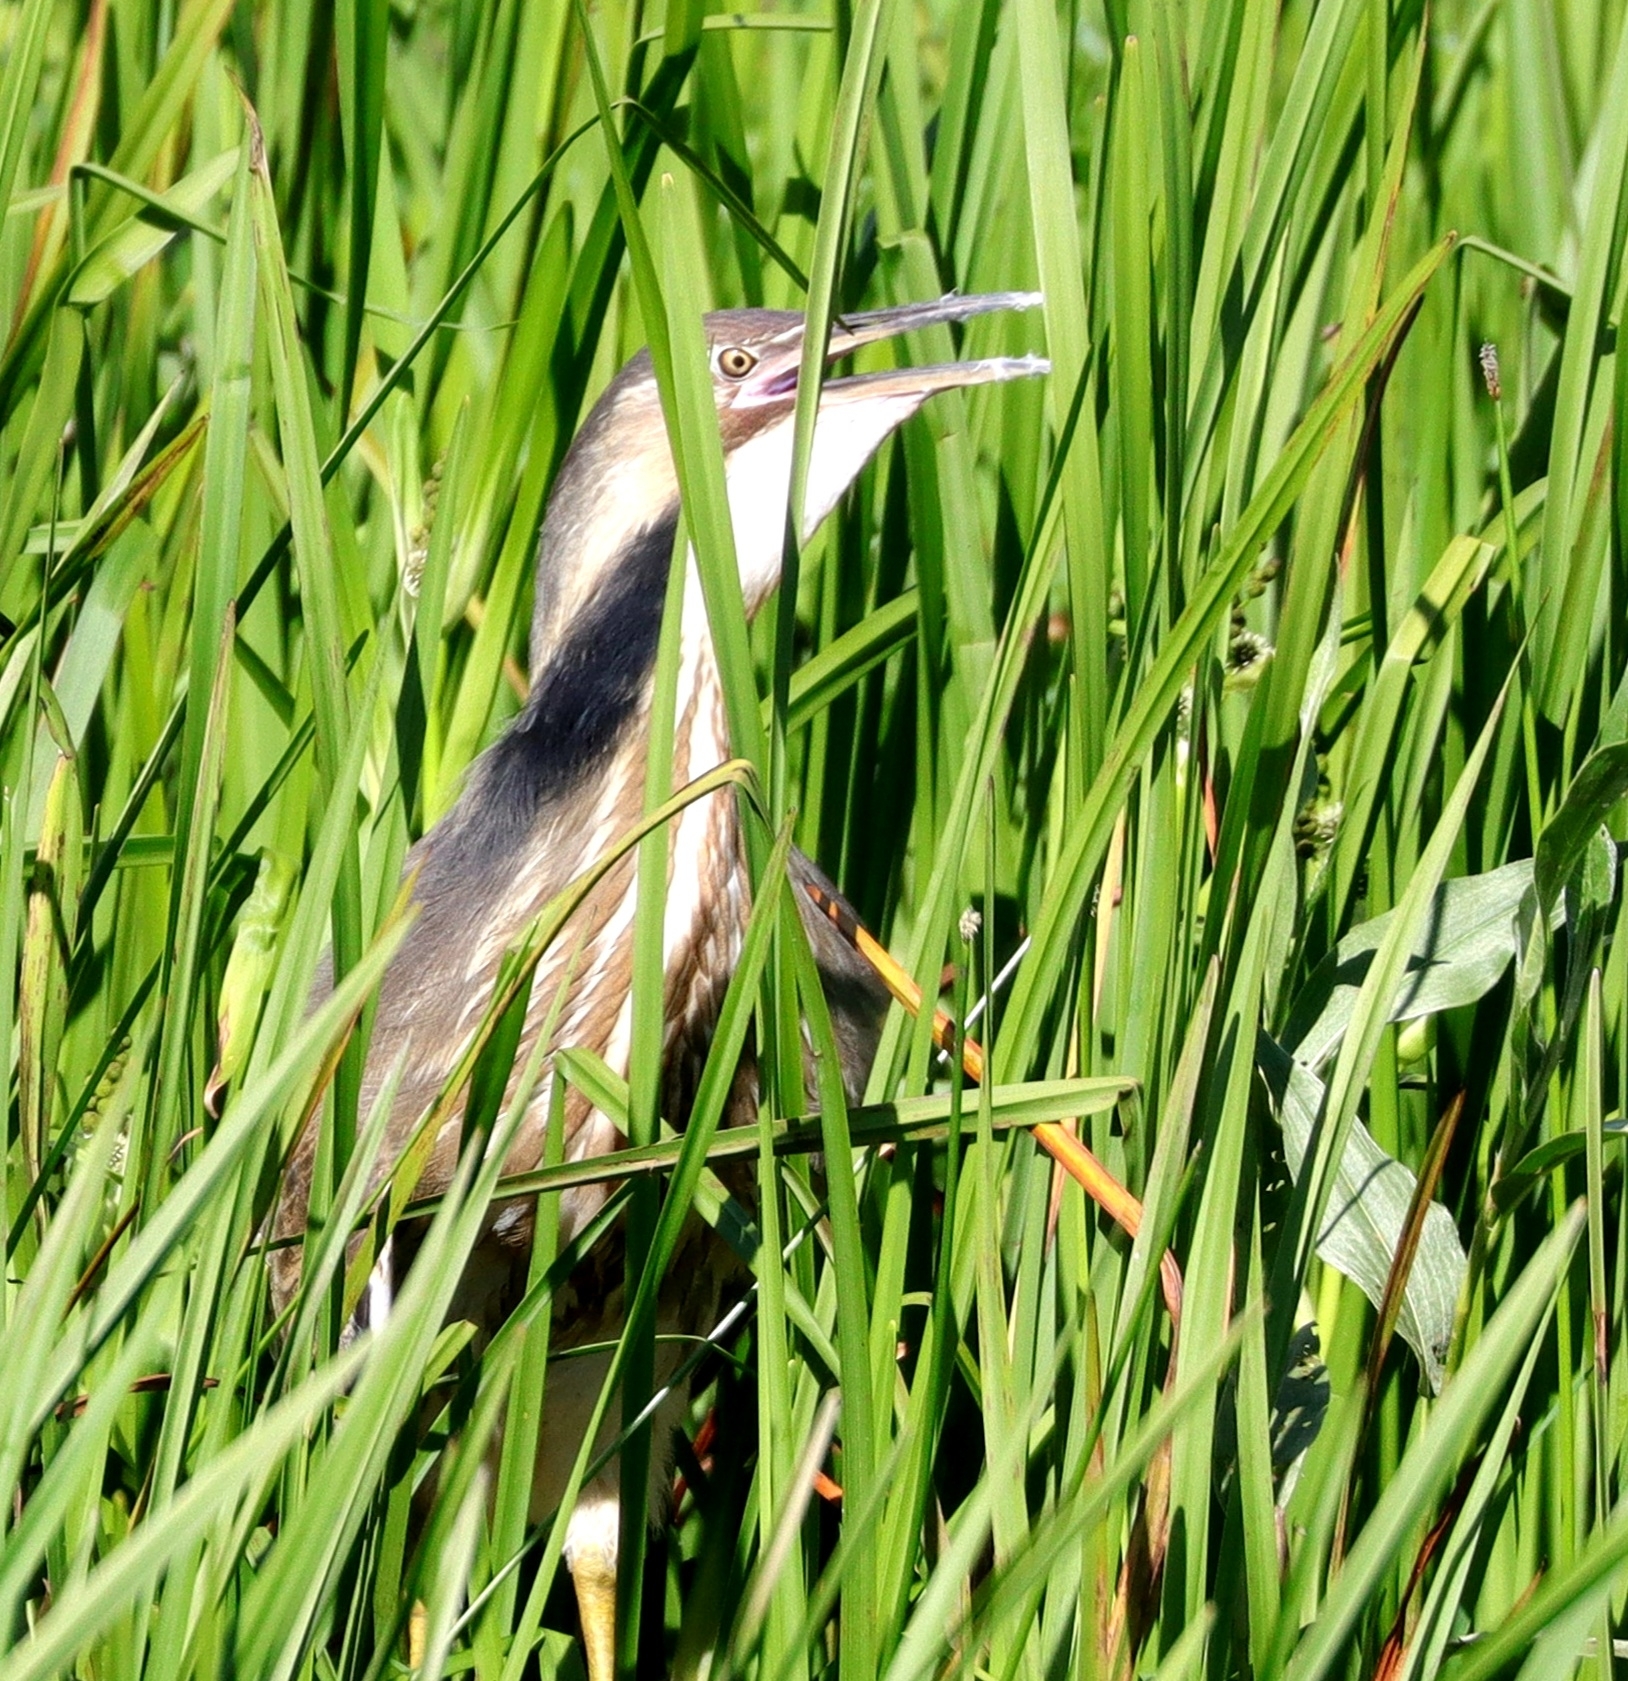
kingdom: Animalia
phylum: Chordata
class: Aves
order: Pelecaniformes
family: Ardeidae
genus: Botaurus
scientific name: Botaurus lentiginosus
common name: American bittern
